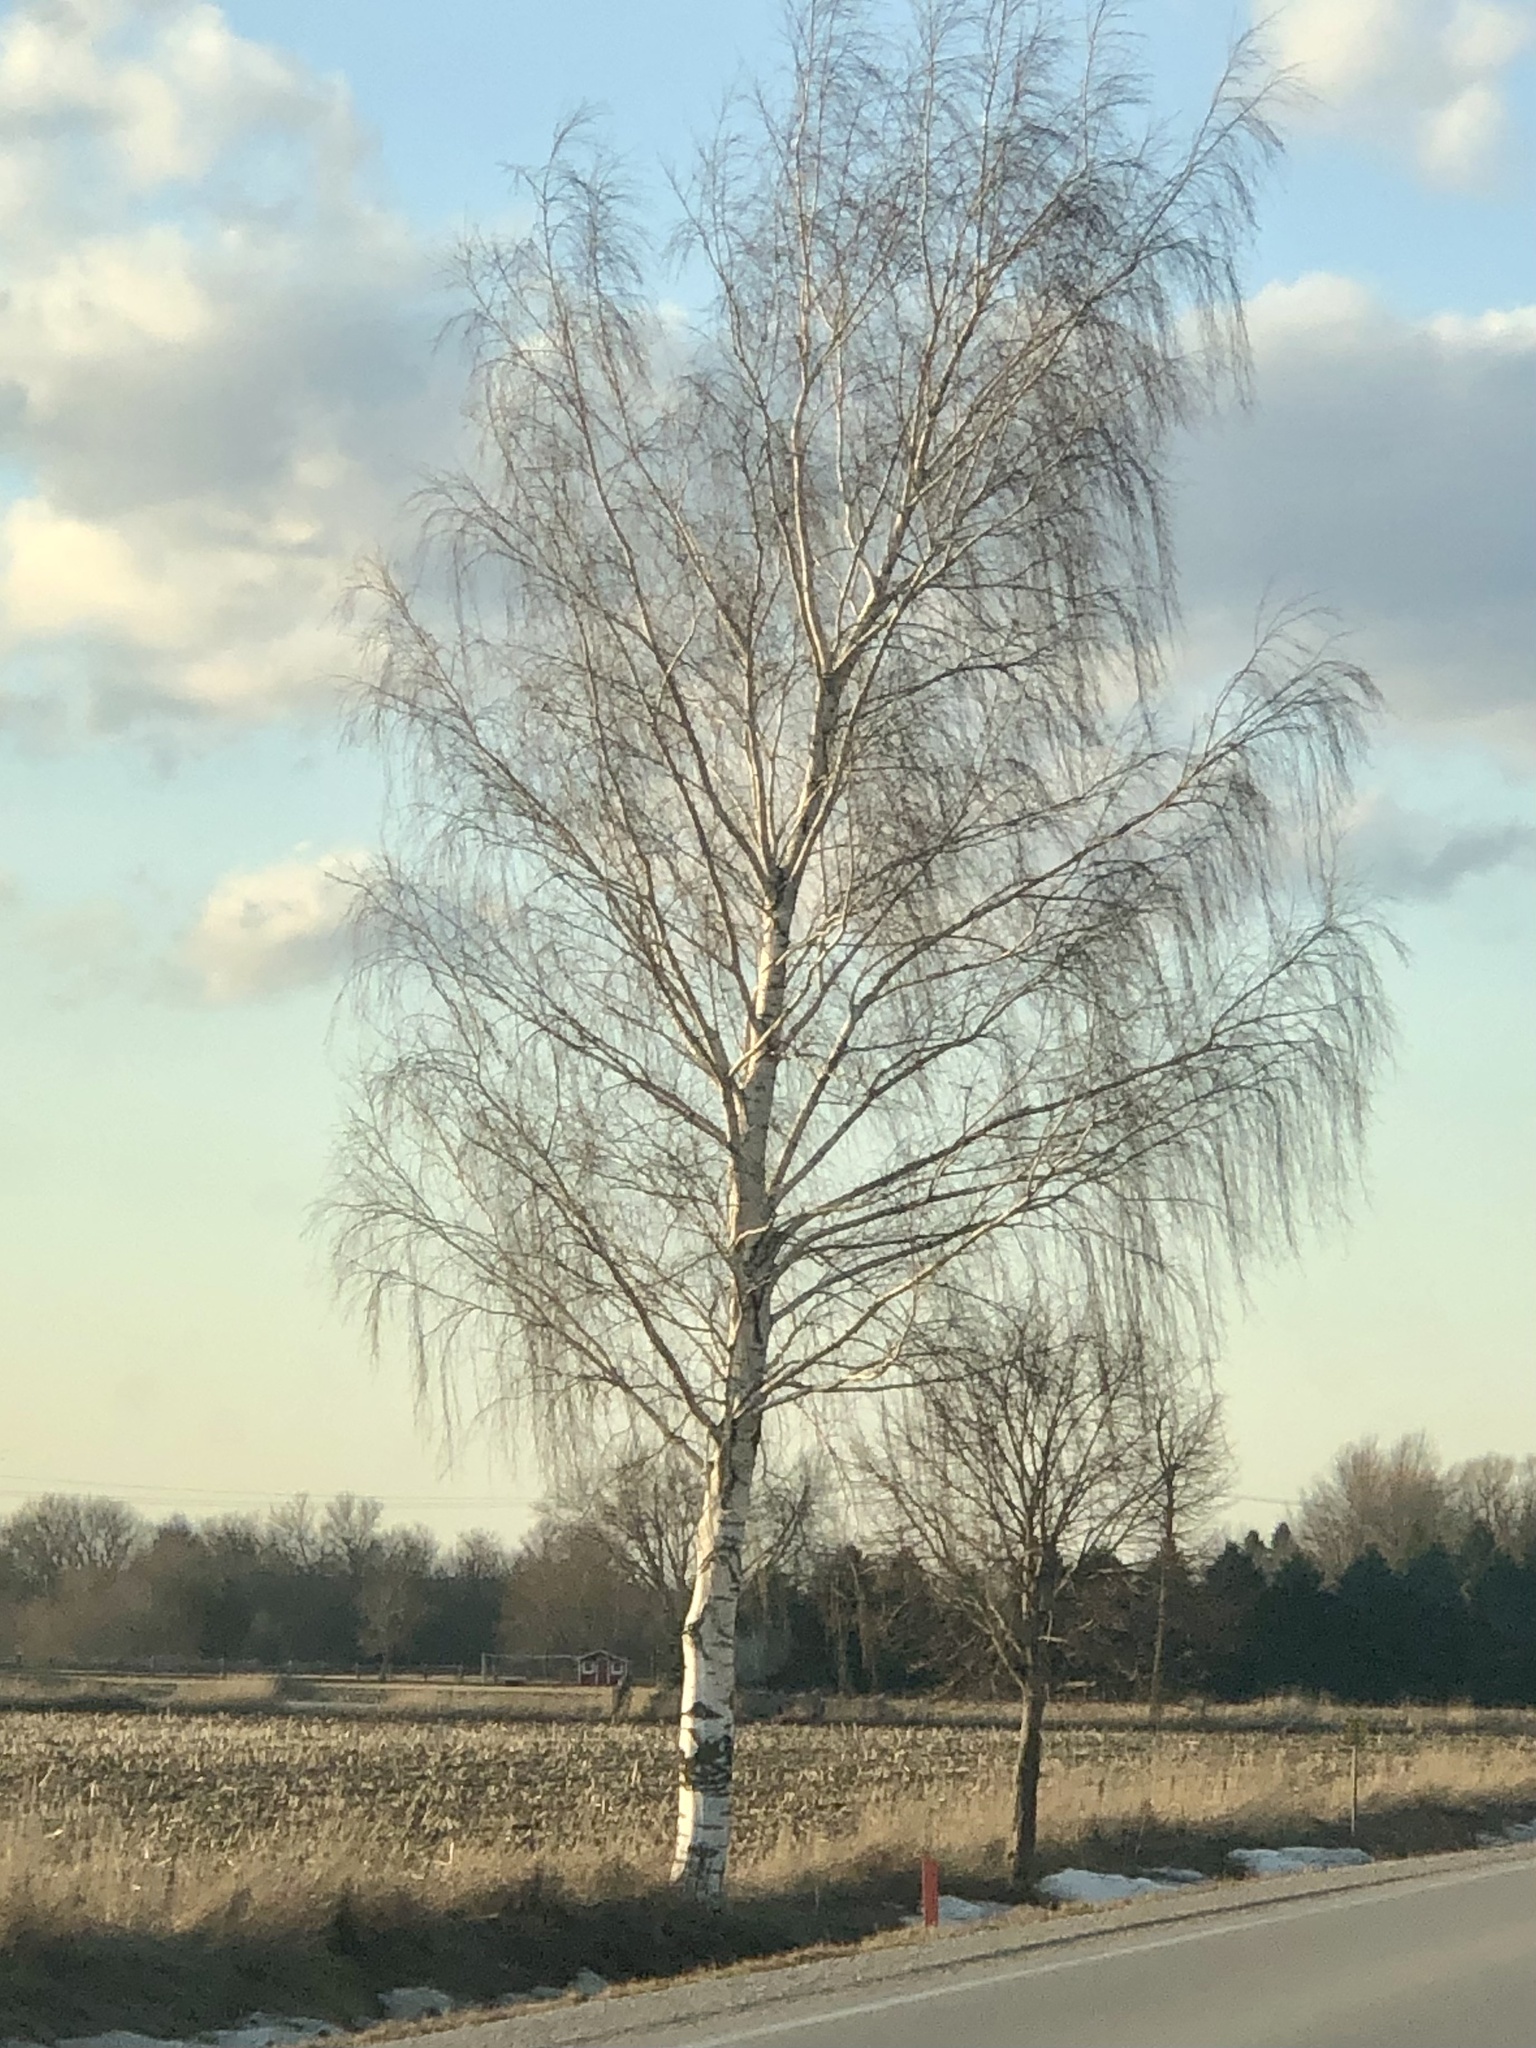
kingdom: Plantae
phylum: Tracheophyta
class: Magnoliopsida
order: Fagales
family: Betulaceae
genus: Betula
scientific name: Betula pendula
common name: Silver birch
